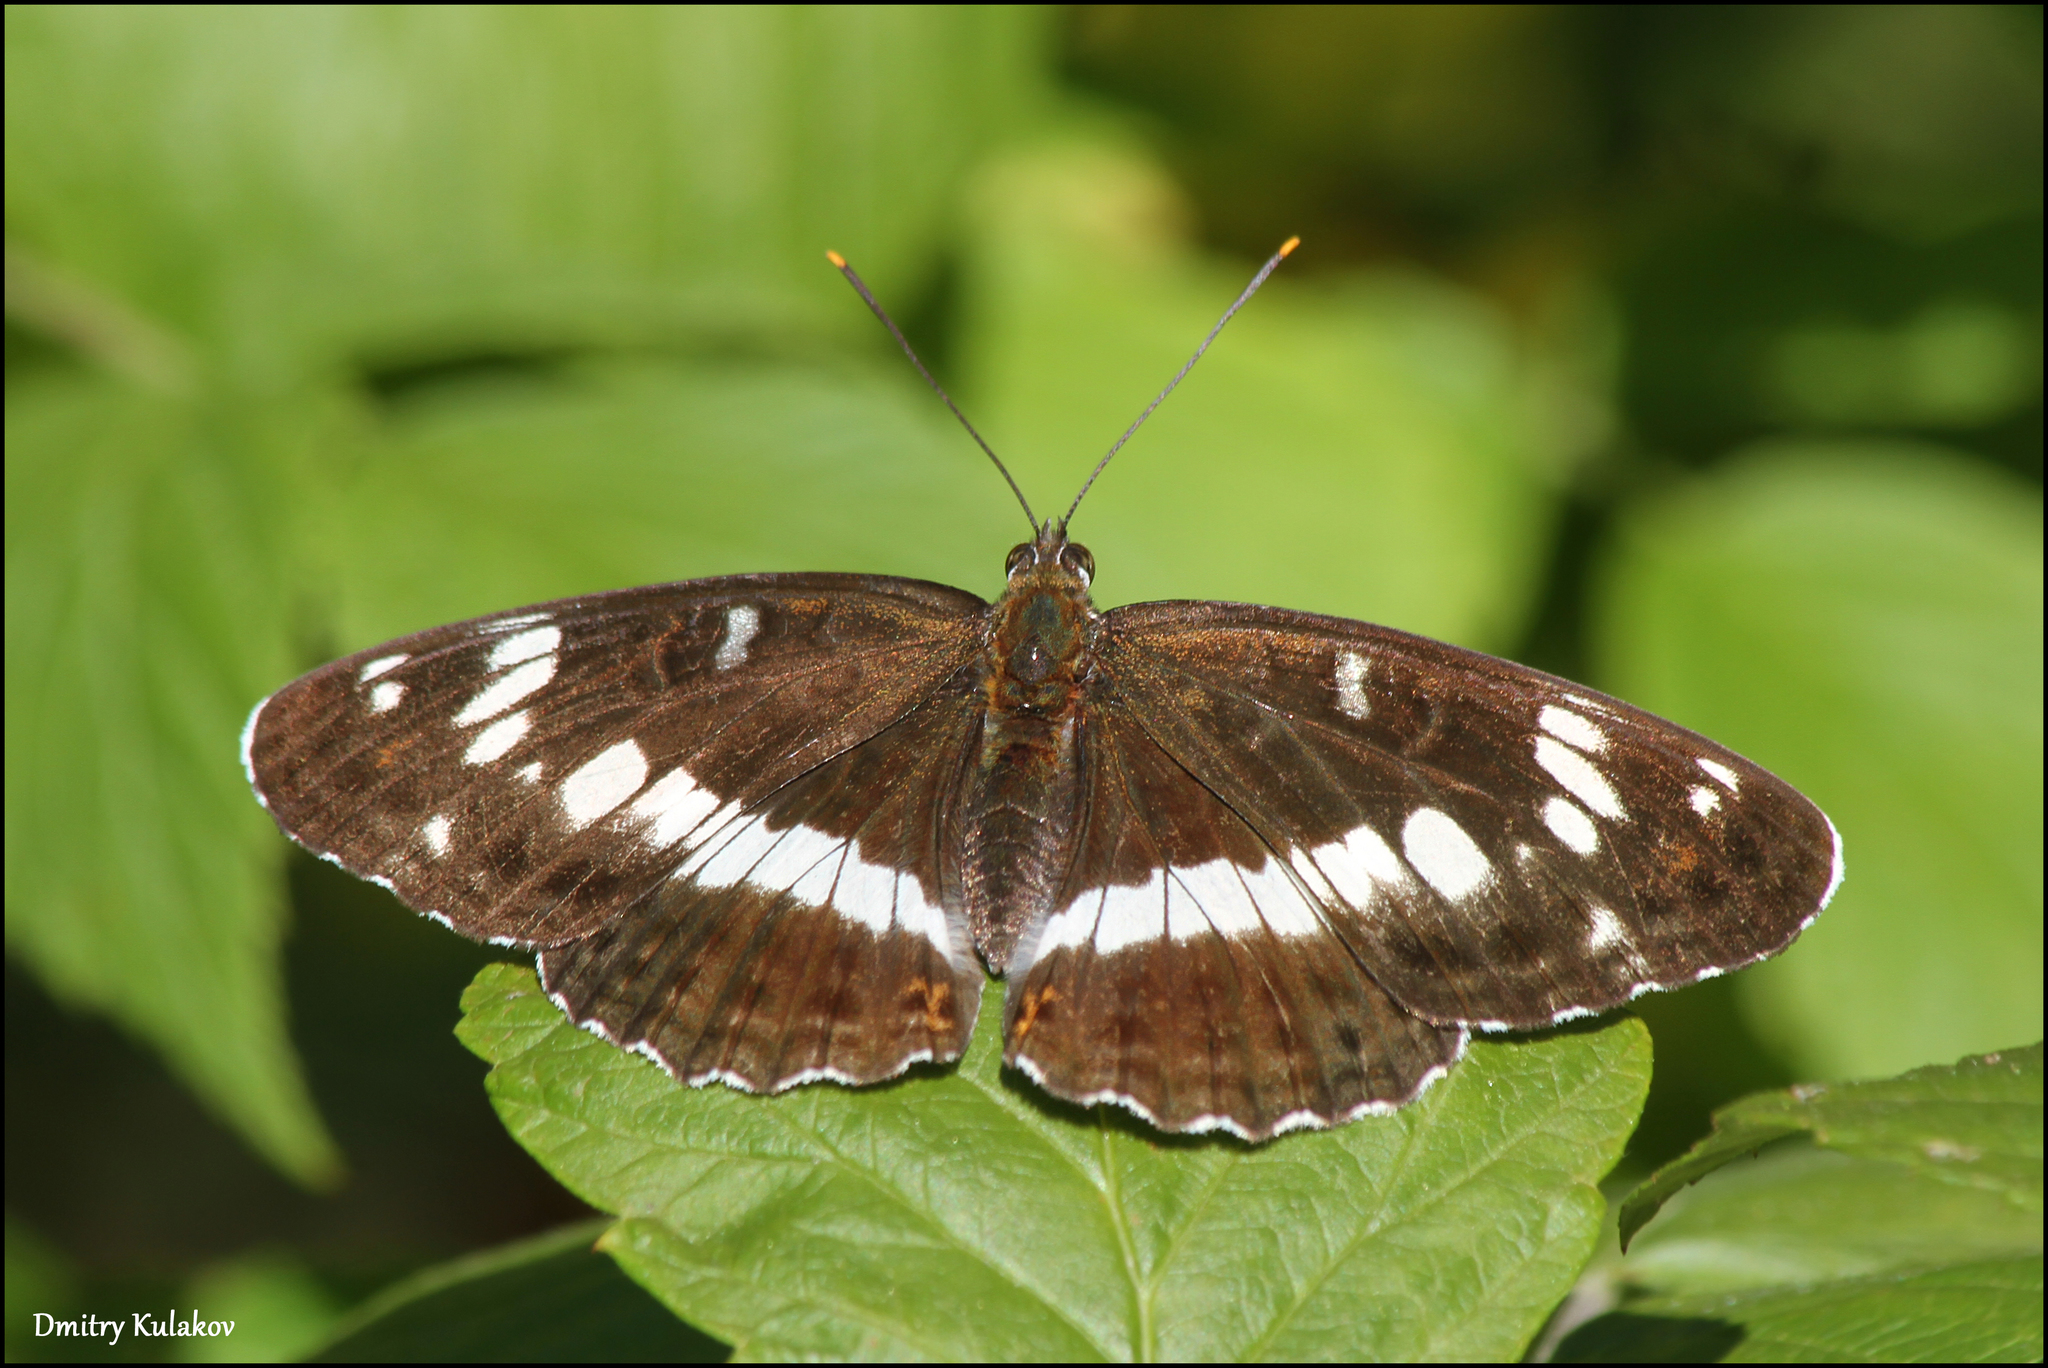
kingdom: Animalia
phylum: Arthropoda
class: Insecta
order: Lepidoptera
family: Nymphalidae
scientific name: Nymphalidae
